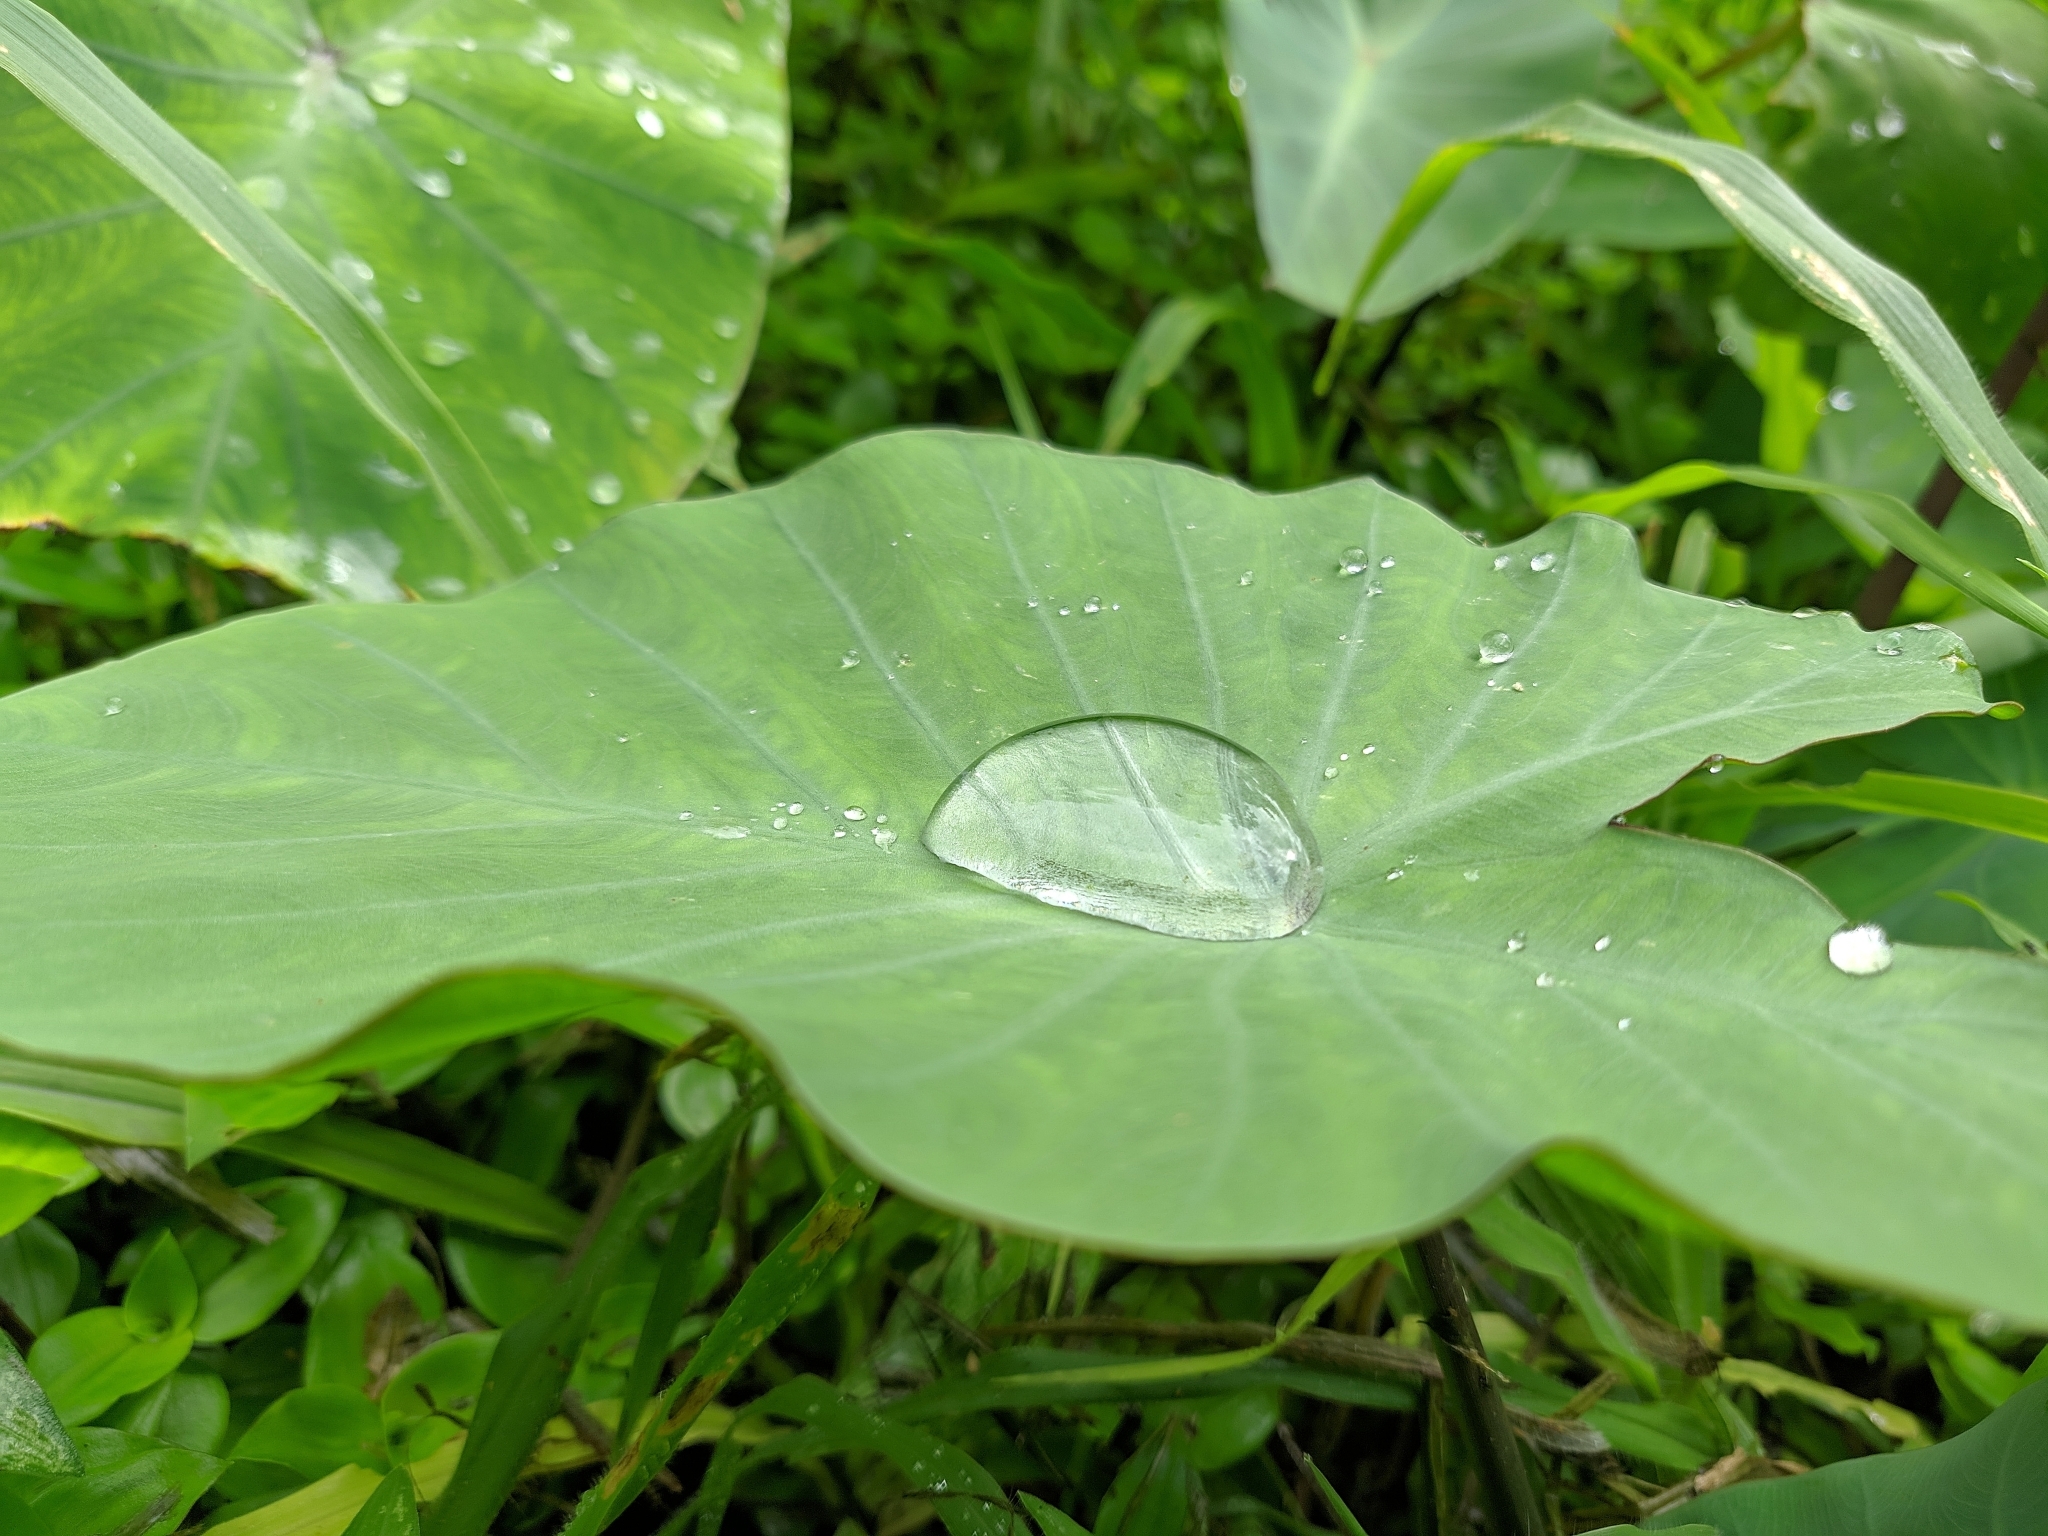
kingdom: Plantae
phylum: Tracheophyta
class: Liliopsida
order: Alismatales
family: Araceae
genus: Colocasia
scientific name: Colocasia esculenta
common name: Taro
